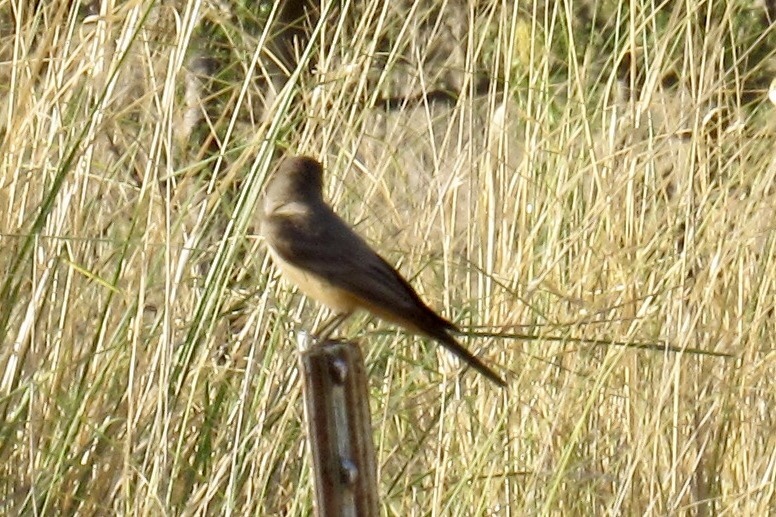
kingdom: Animalia
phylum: Chordata
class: Aves
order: Passeriformes
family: Tyrannidae
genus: Sayornis
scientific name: Sayornis saya
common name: Say's phoebe
